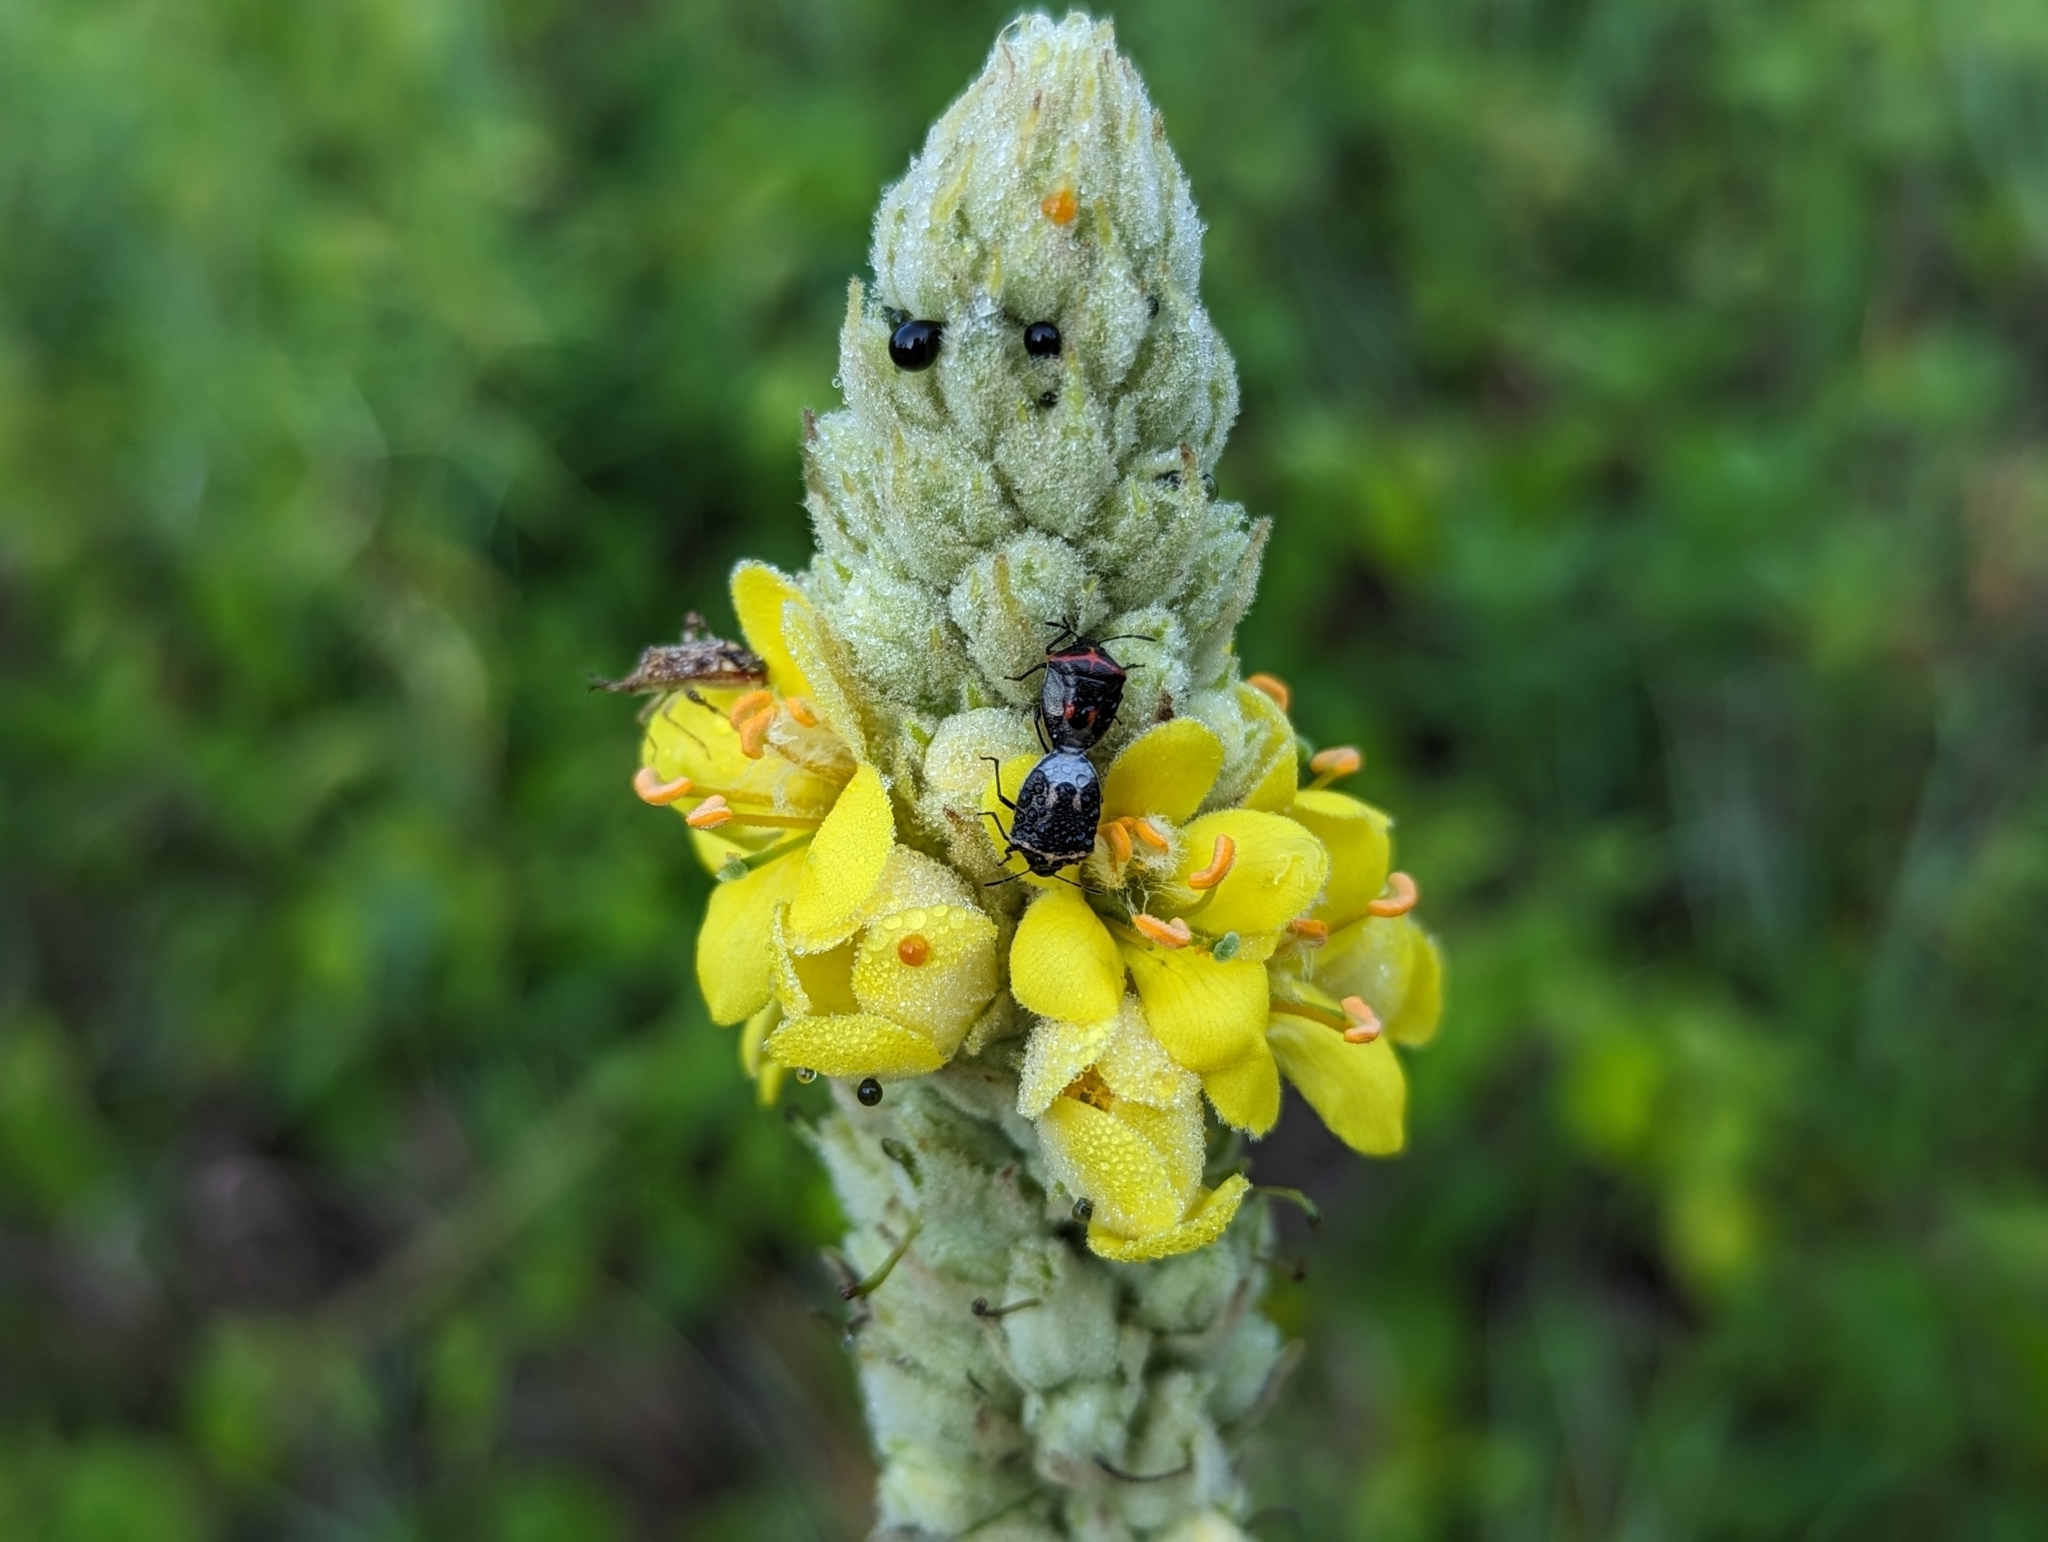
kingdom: Plantae
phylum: Tracheophyta
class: Magnoliopsida
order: Lamiales
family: Scrophulariaceae
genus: Verbascum
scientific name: Verbascum thapsus
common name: Common mullein
